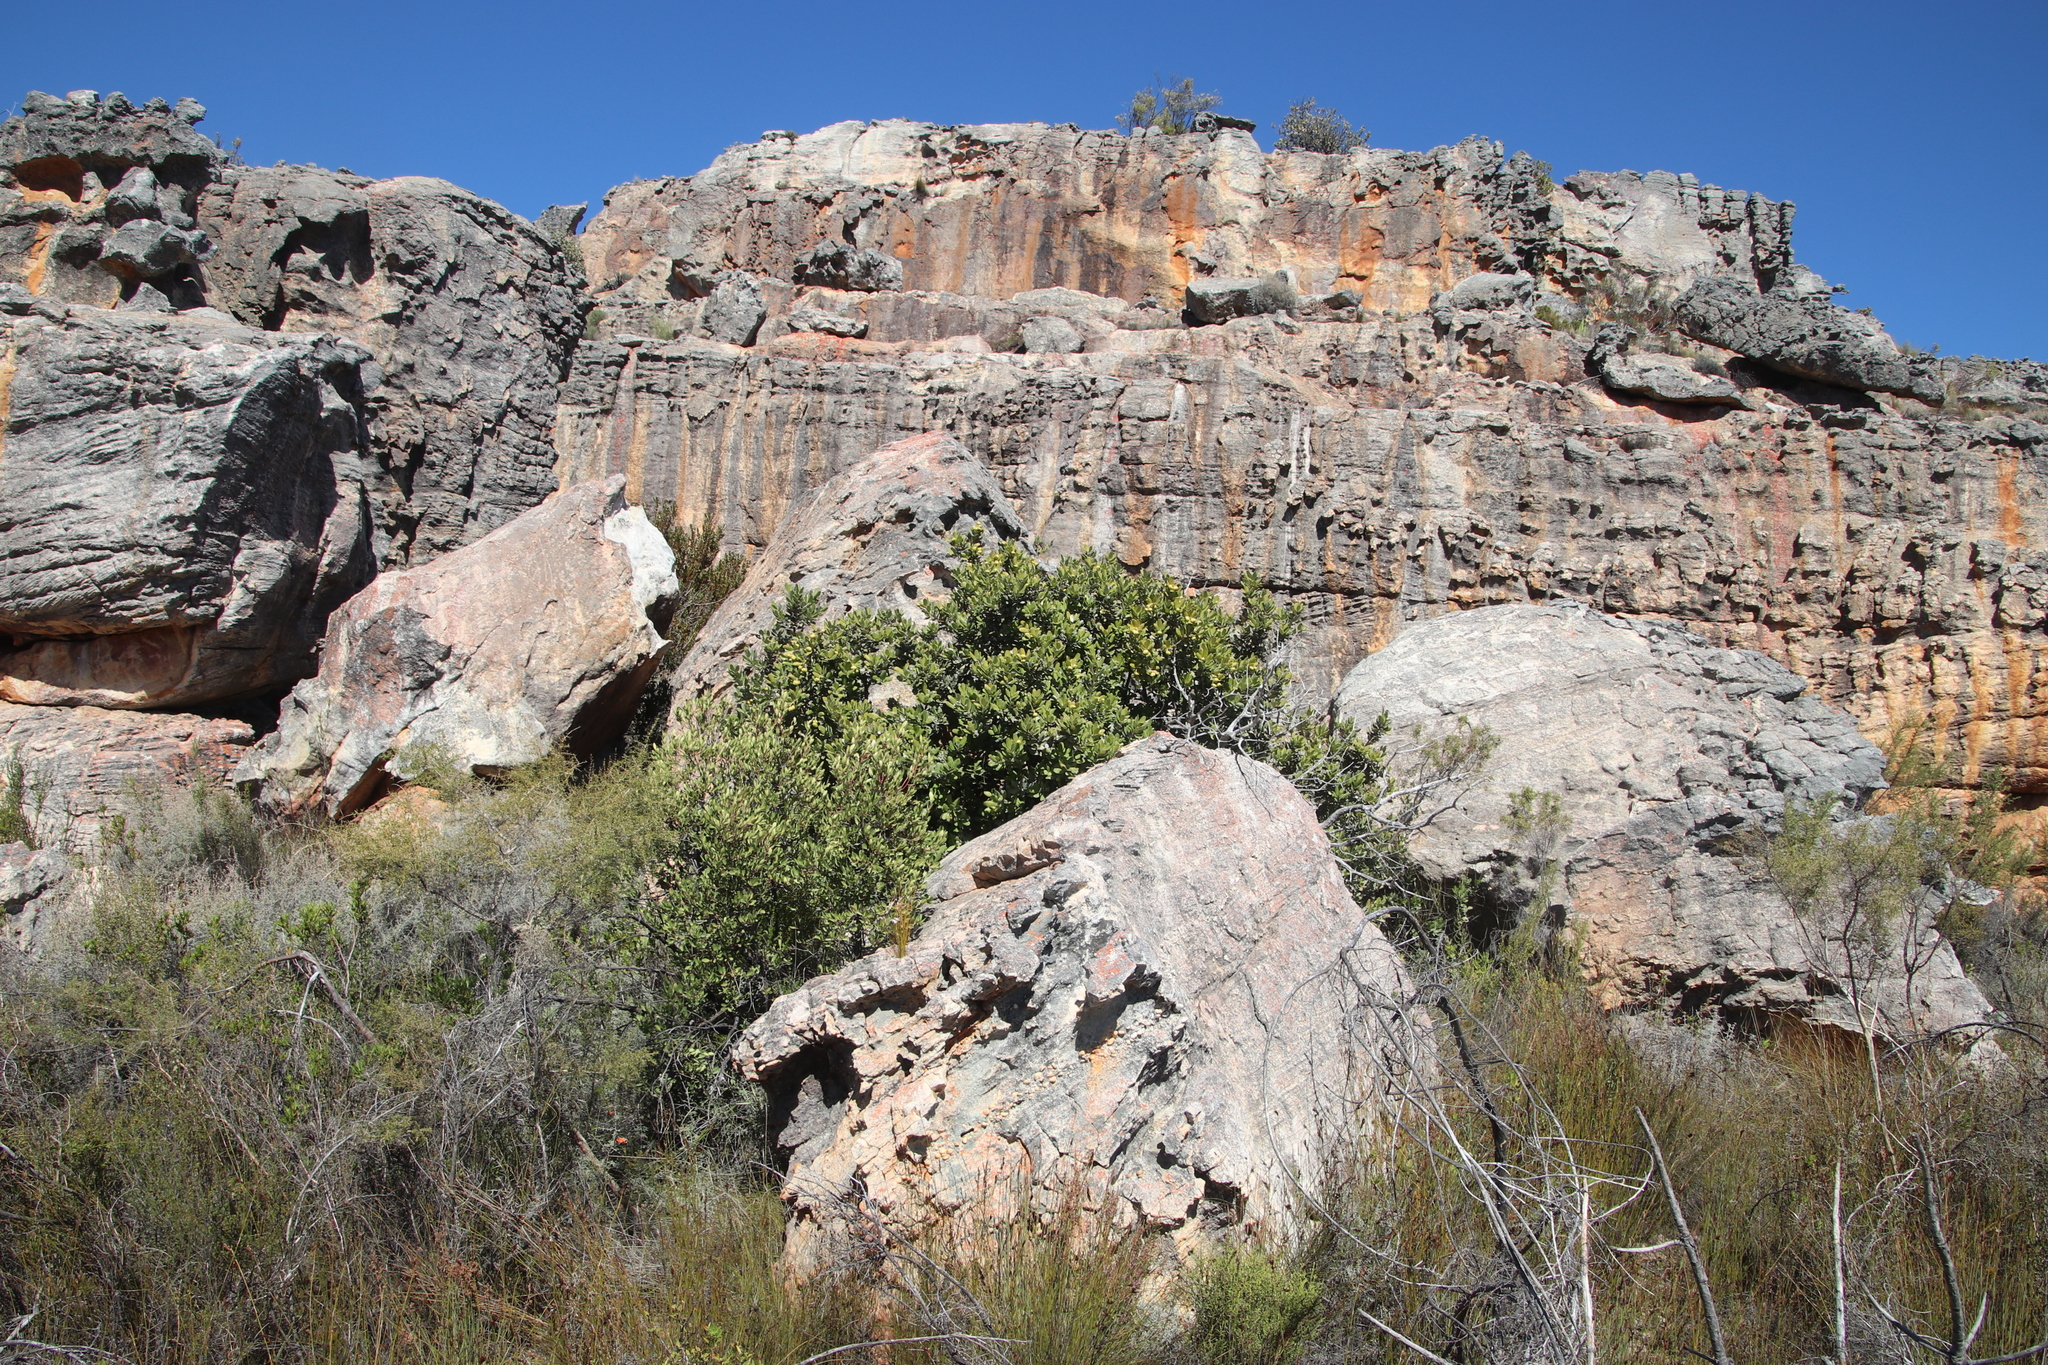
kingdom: Plantae
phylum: Tracheophyta
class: Magnoliopsida
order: Sapindales
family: Anacardiaceae
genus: Heeria
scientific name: Heeria argentea
